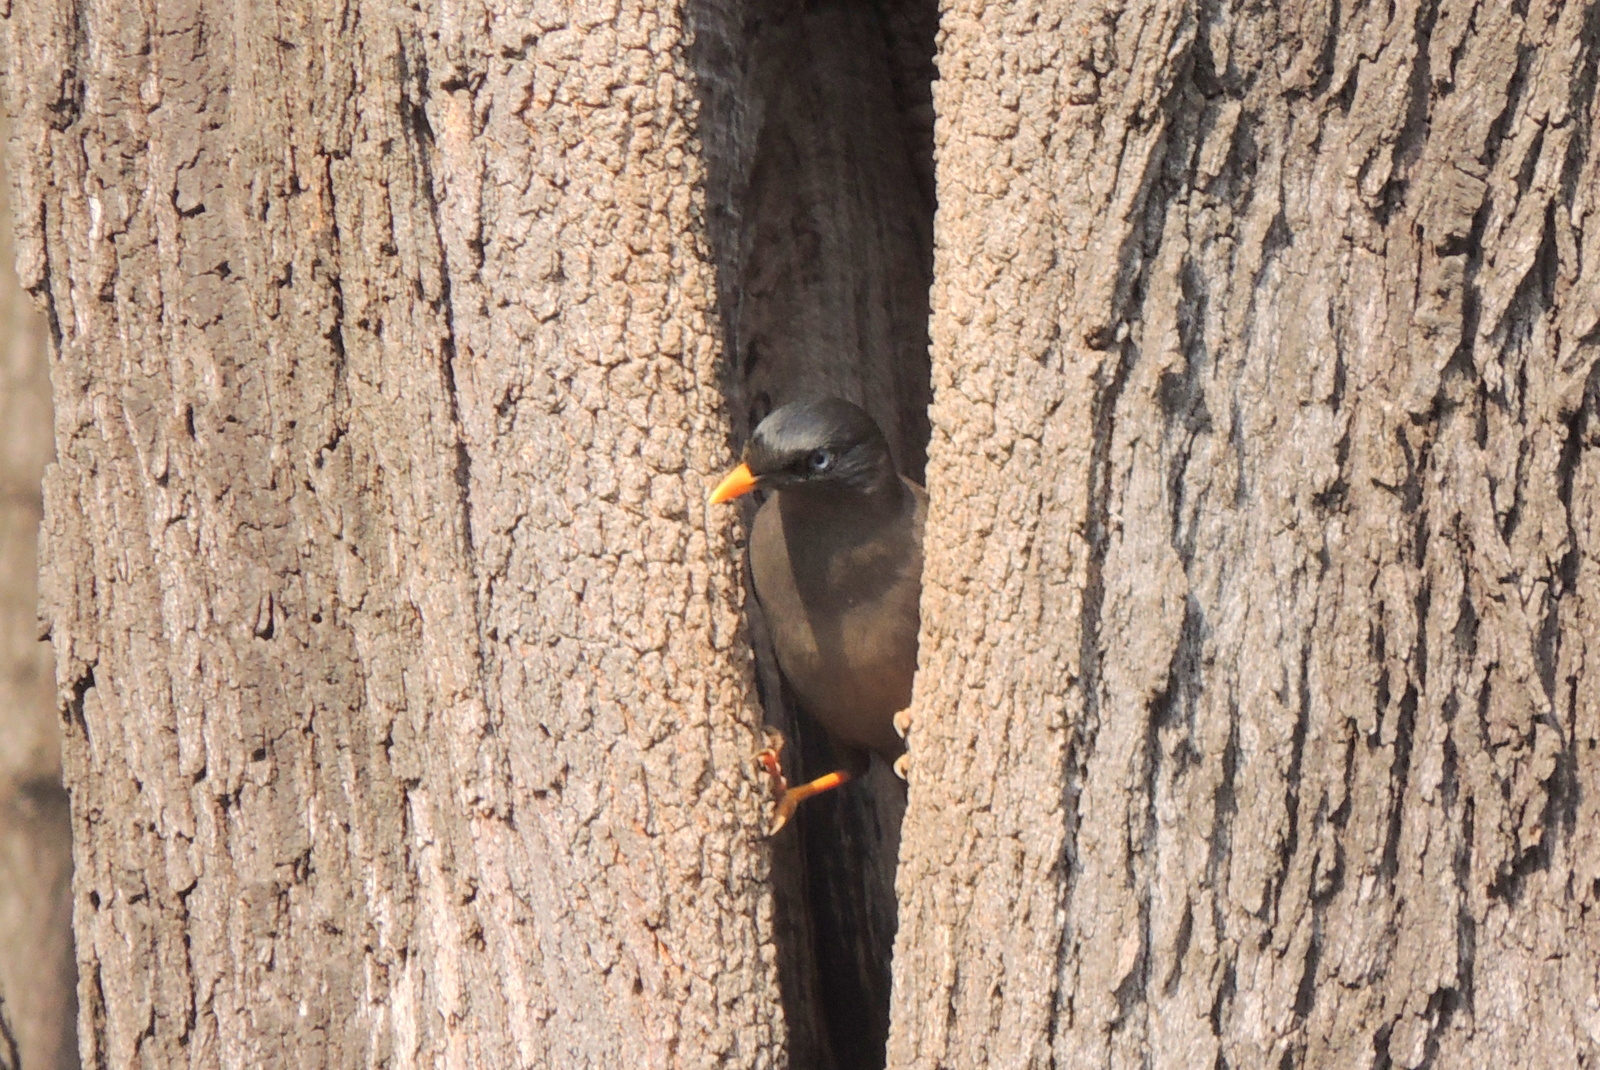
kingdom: Animalia
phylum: Chordata
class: Aves
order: Passeriformes
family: Sturnidae
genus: Acridotheres
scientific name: Acridotheres fuscus
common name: Jungle myna
